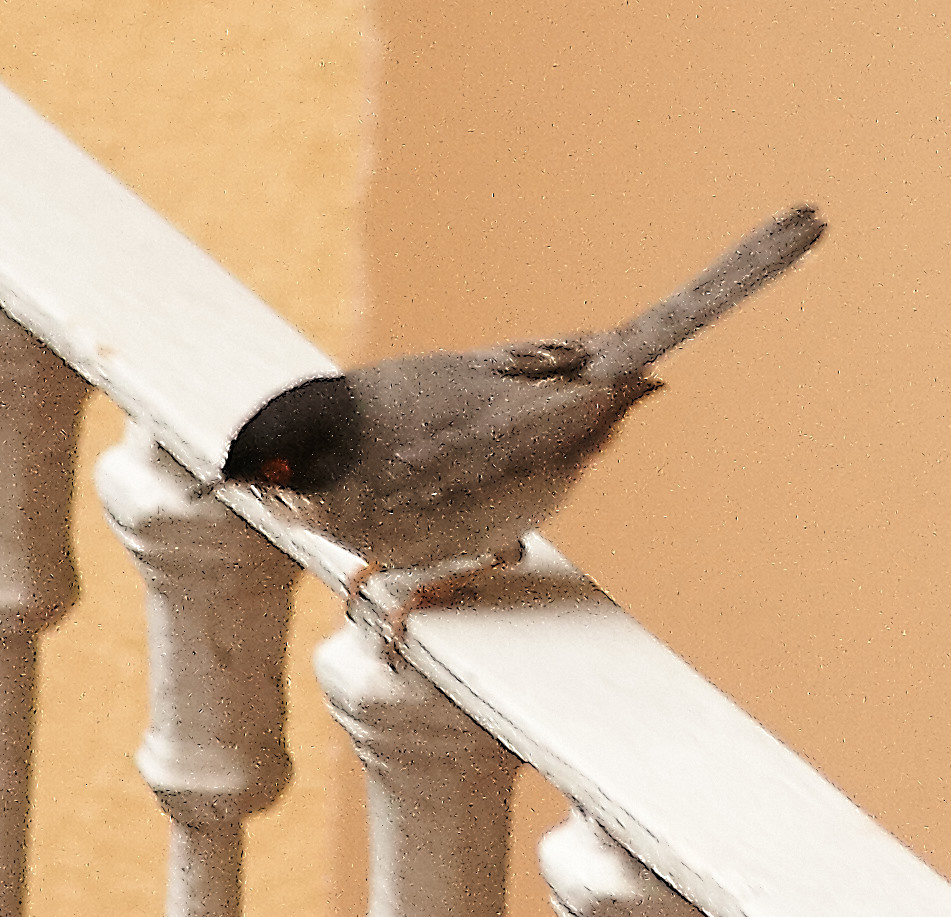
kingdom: Animalia
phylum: Chordata
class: Aves
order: Passeriformes
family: Sylviidae
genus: Curruca
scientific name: Curruca melanocephala
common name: Sardinian warbler
